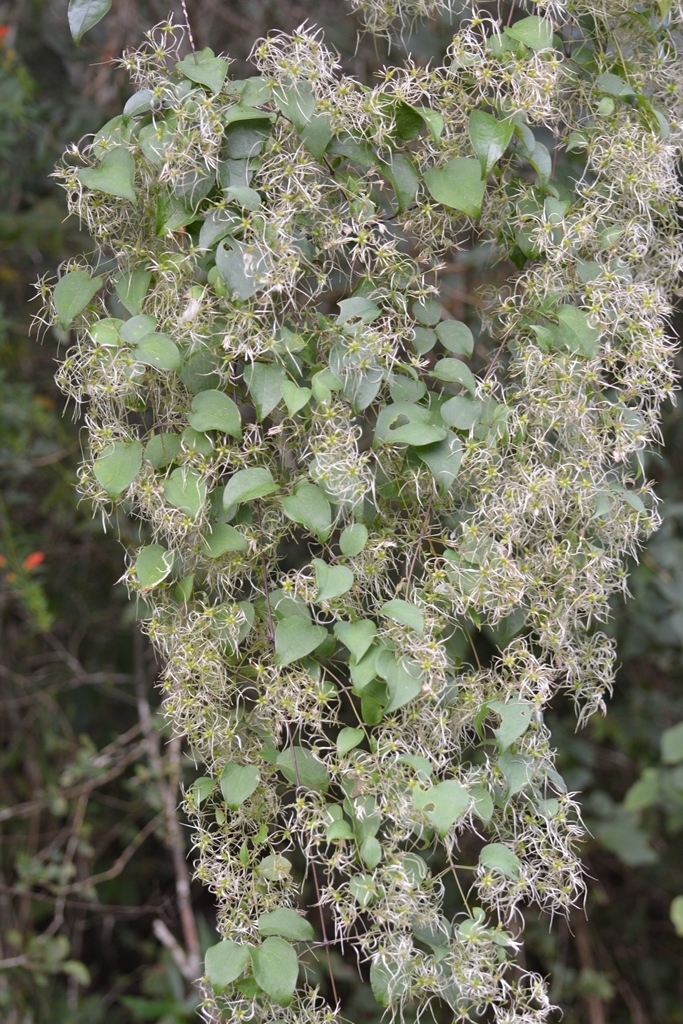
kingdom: Plantae
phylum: Tracheophyta
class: Magnoliopsida
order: Ranunculales
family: Ranunculaceae
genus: Clematis
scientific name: Clematis dioica
